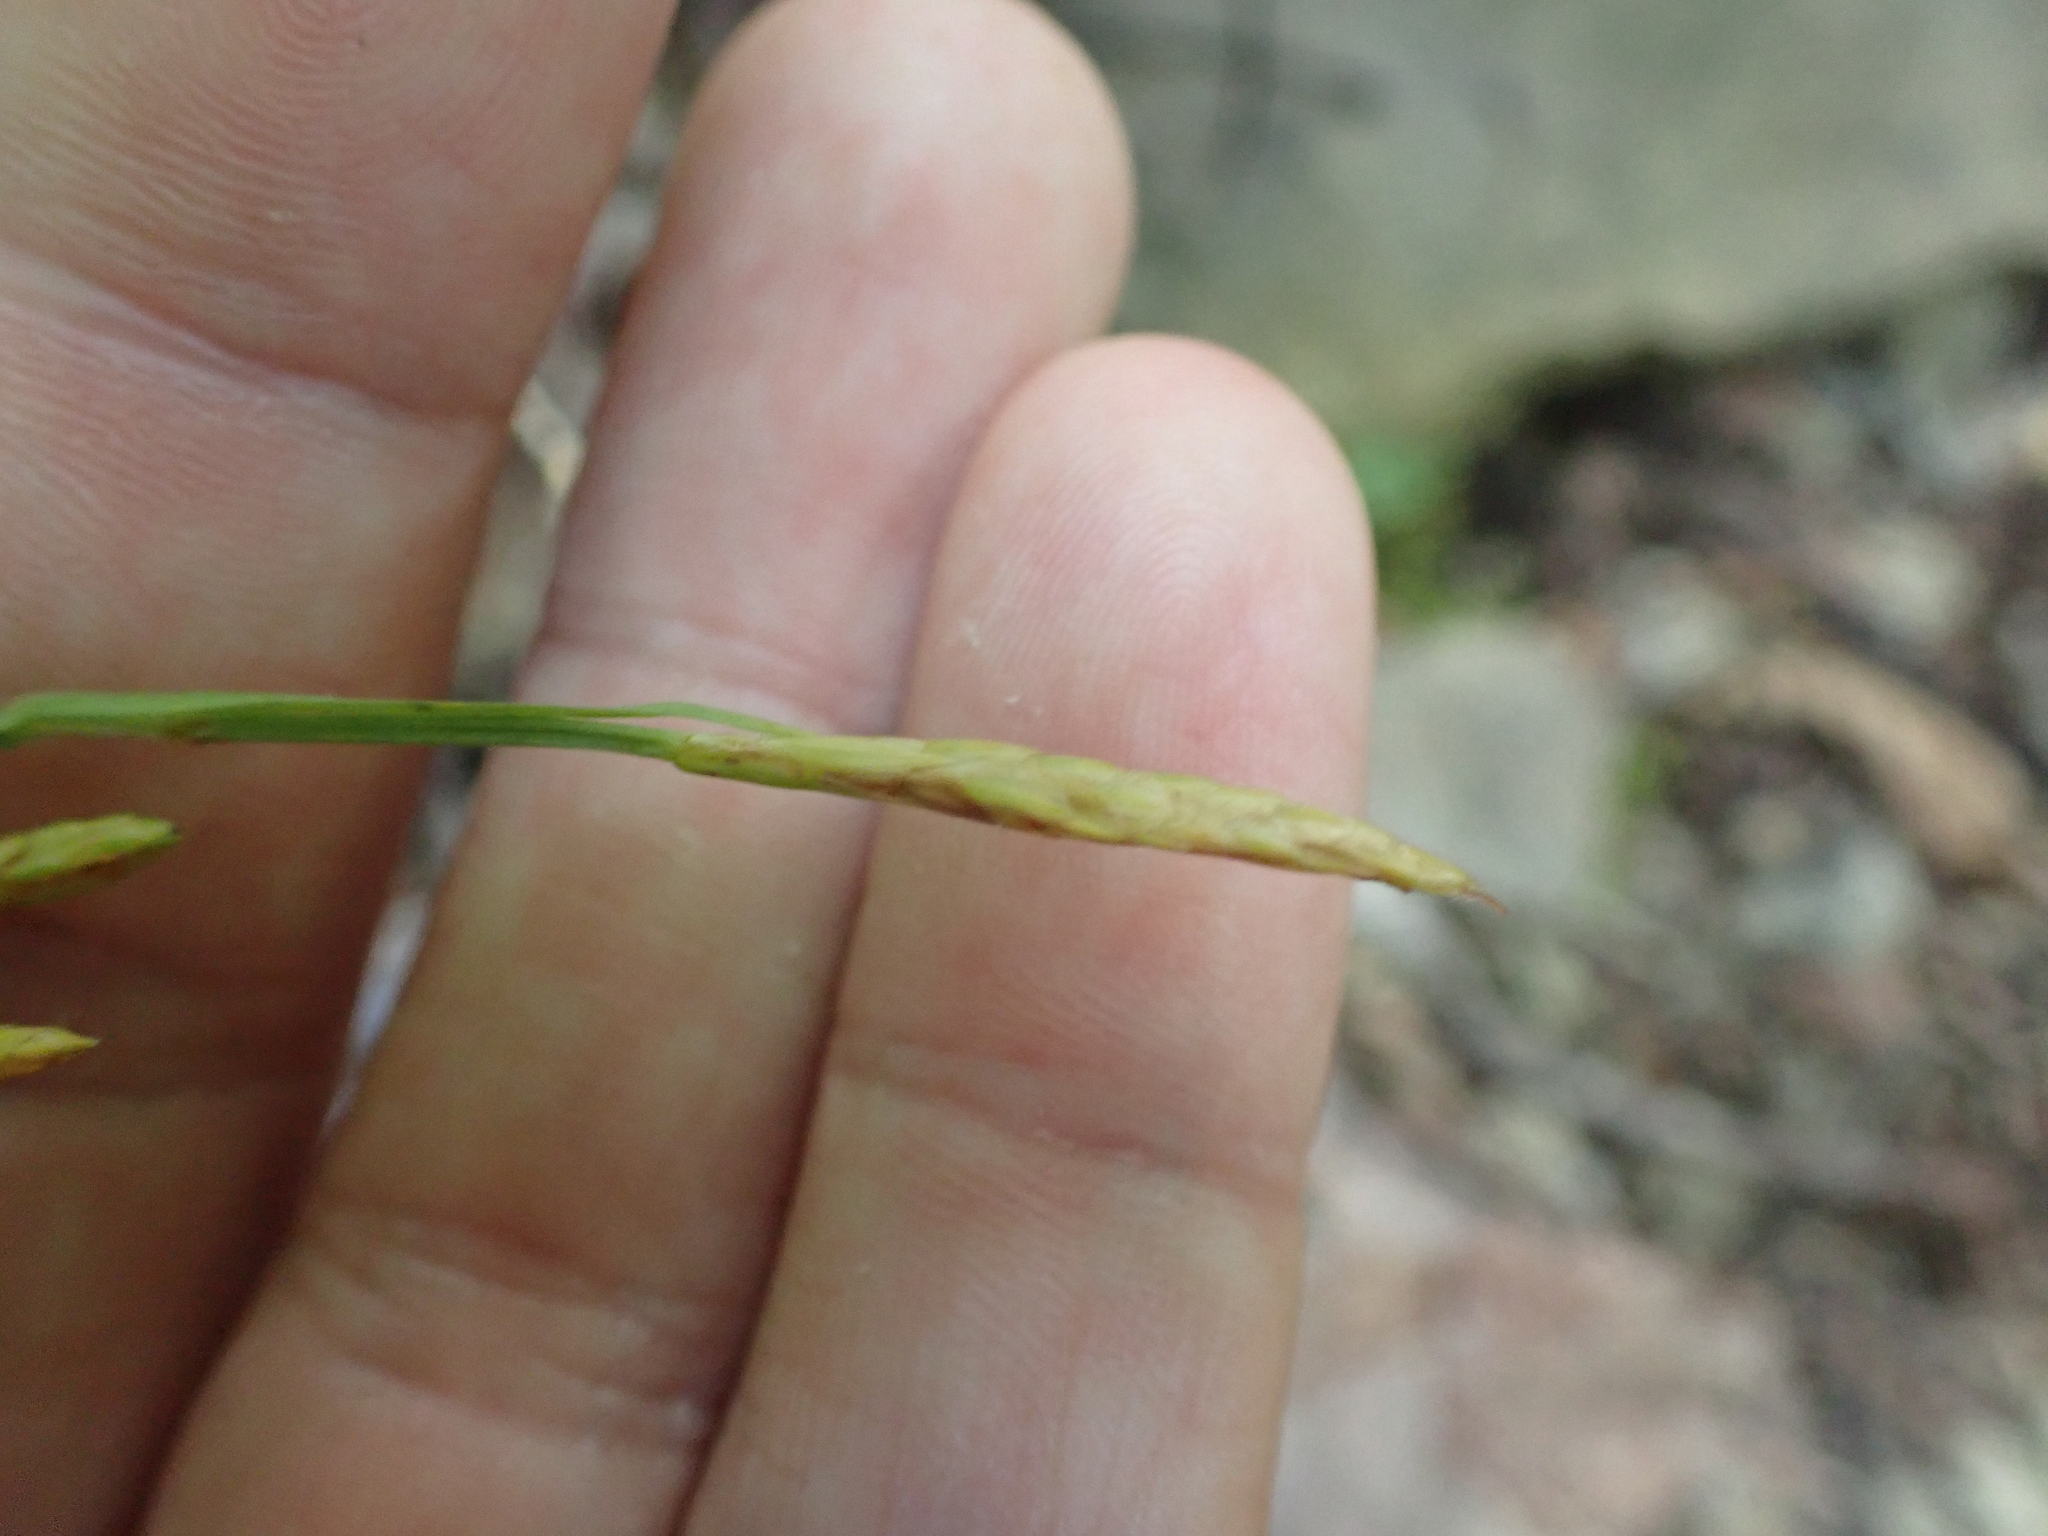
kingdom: Plantae
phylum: Tracheophyta
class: Liliopsida
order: Poales
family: Cyperaceae
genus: Carex
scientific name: Carex platyphylla
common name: Broad-leaved sedge
